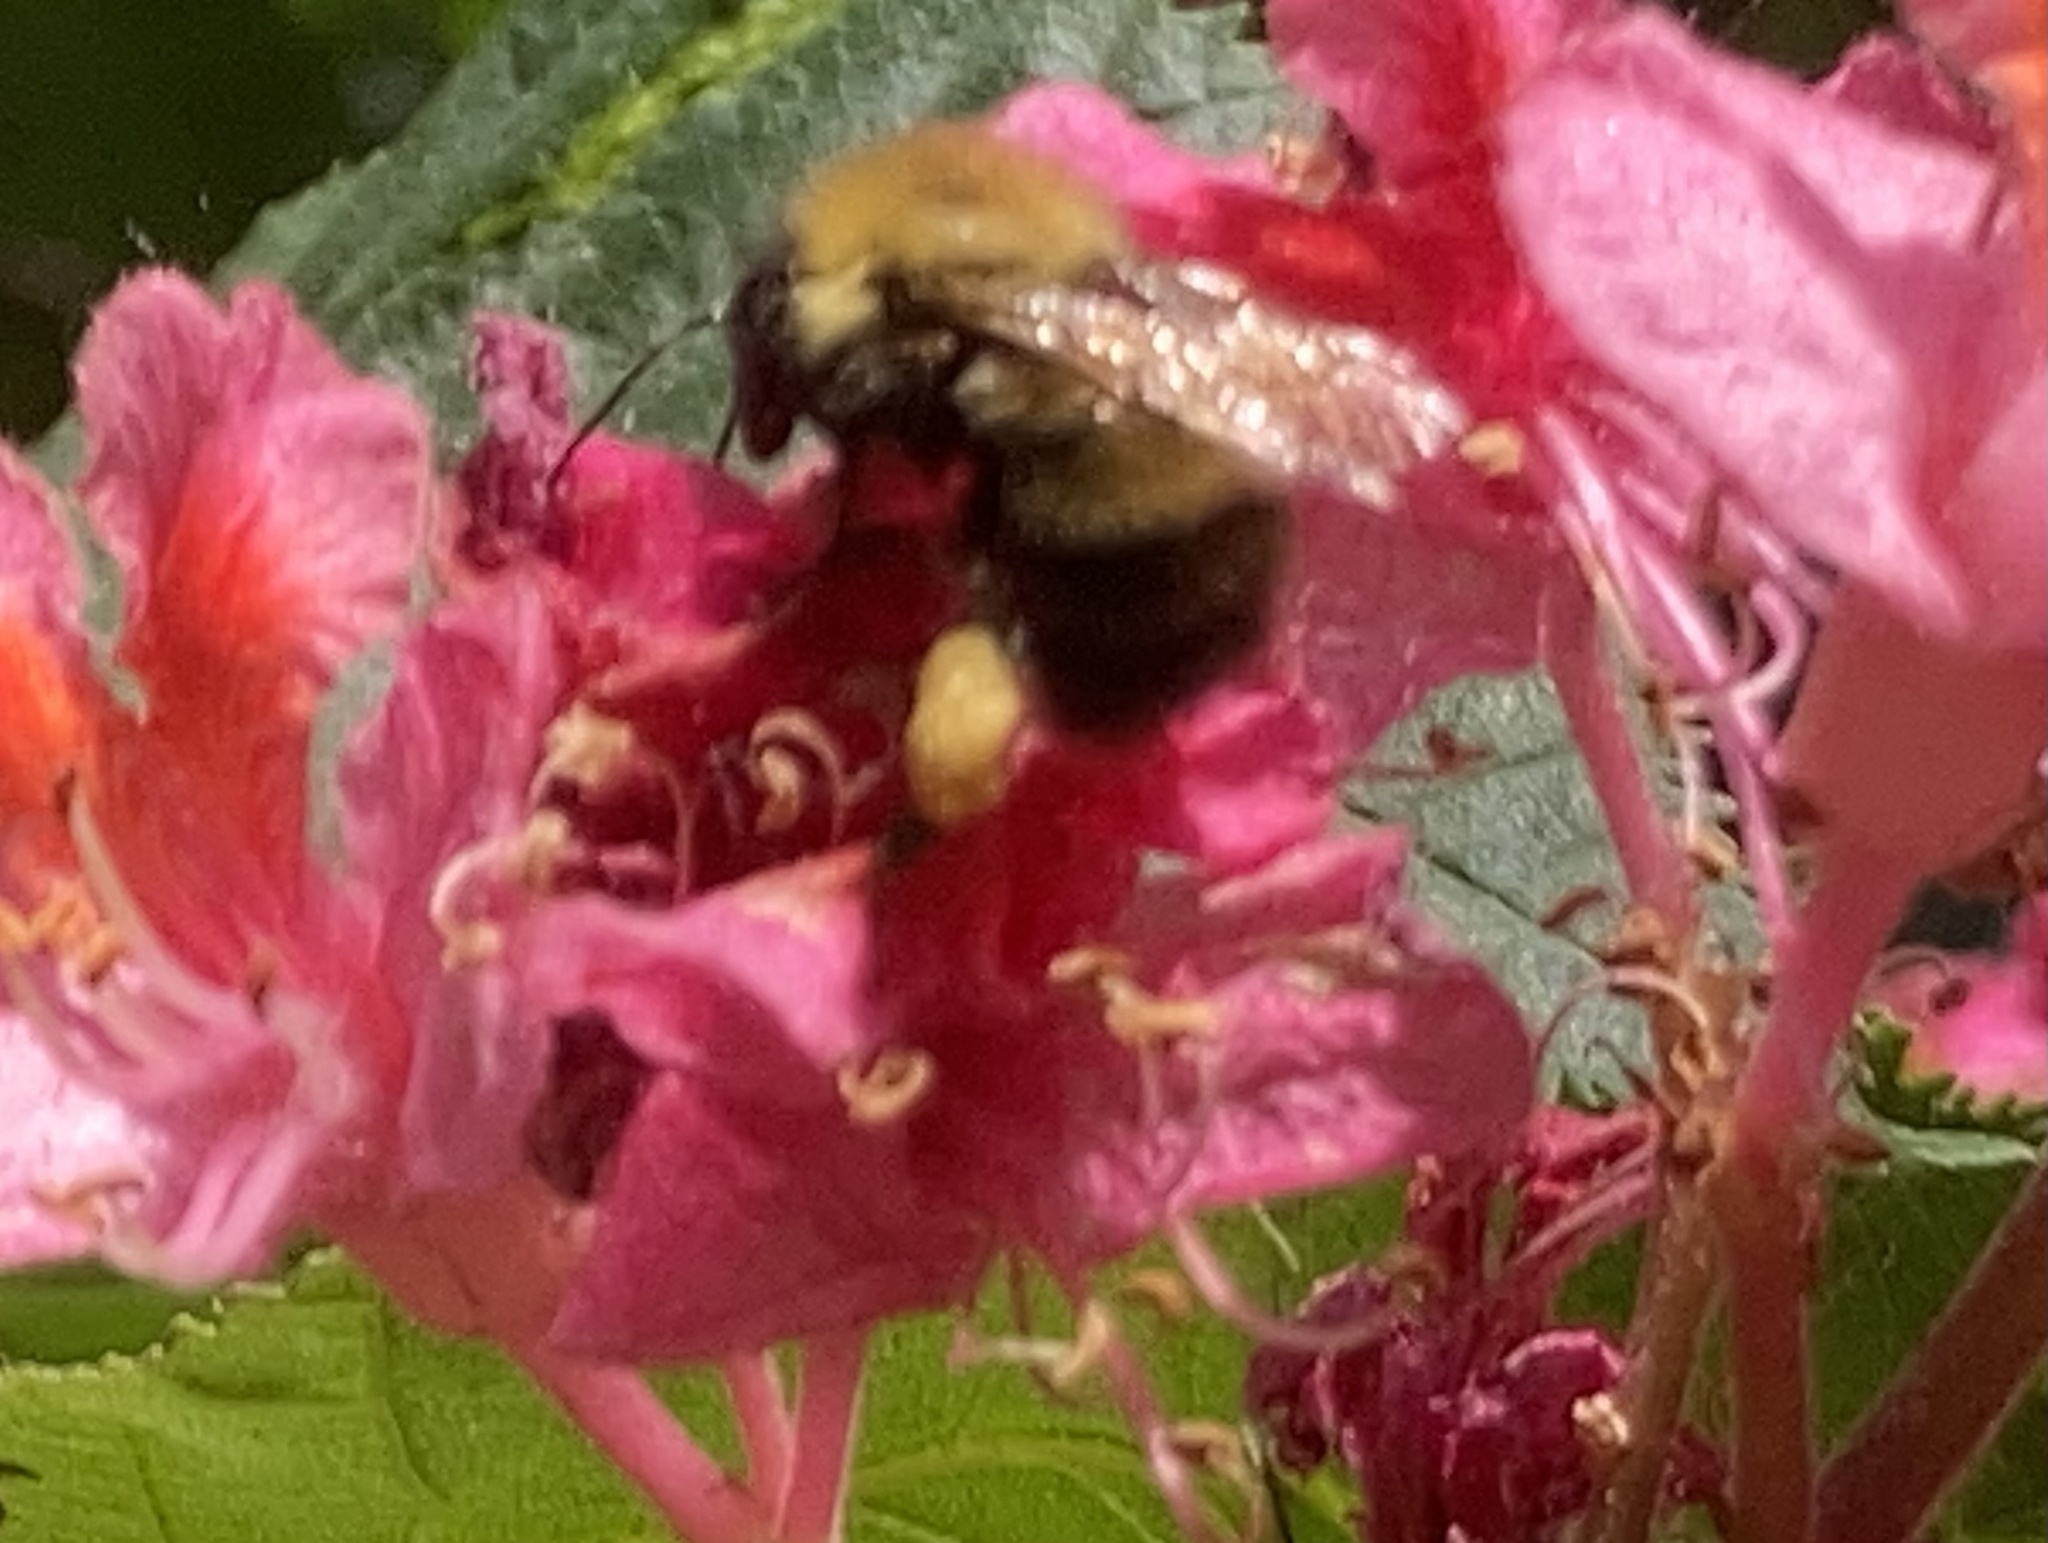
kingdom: Animalia
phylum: Arthropoda
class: Insecta
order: Hymenoptera
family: Apidae
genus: Bombus
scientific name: Bombus perplexus
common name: Confusing bumble bee
